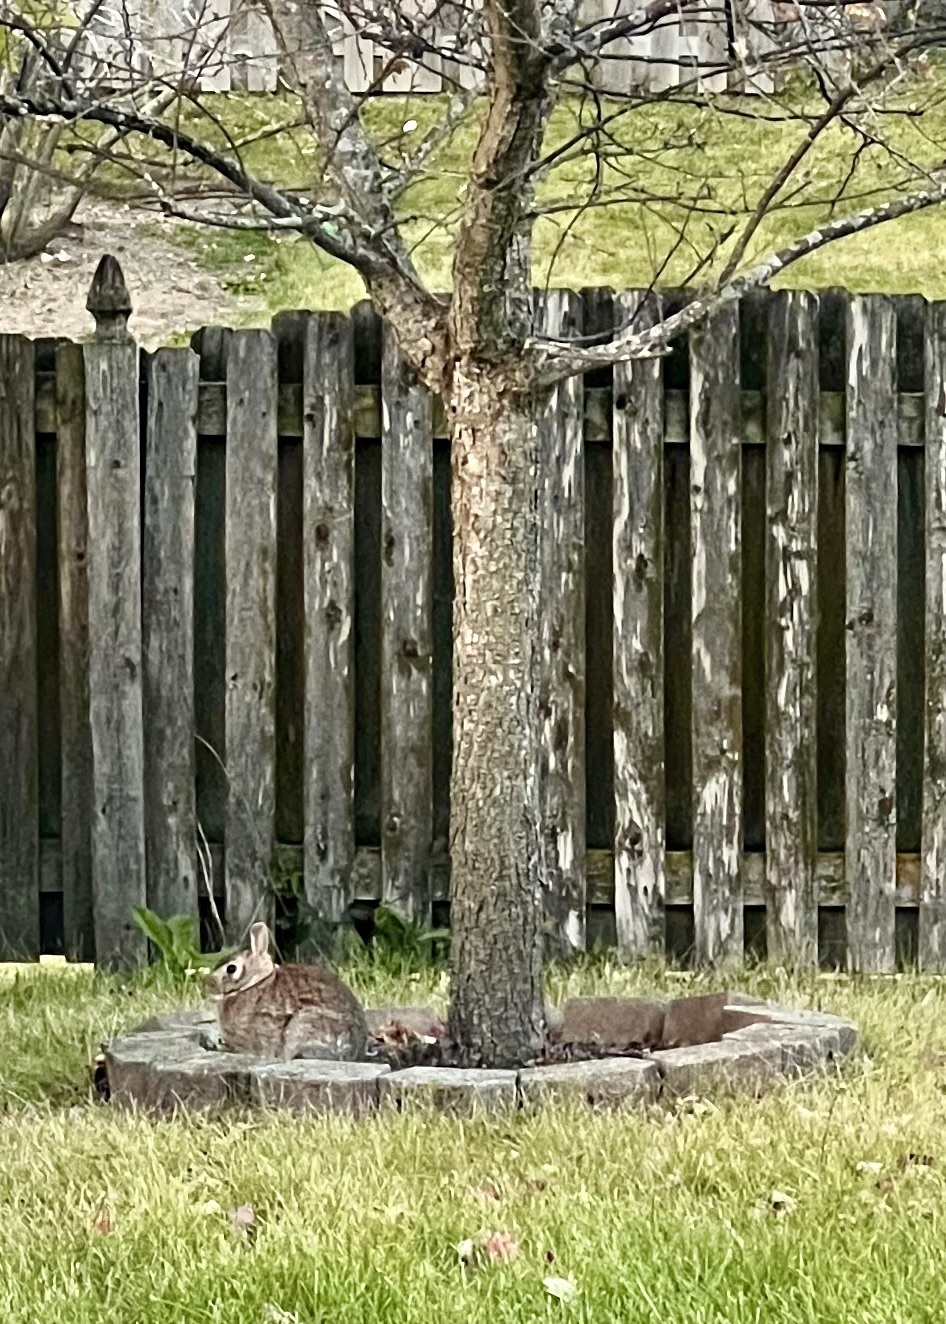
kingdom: Animalia
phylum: Chordata
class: Mammalia
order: Lagomorpha
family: Leporidae
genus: Sylvilagus
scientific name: Sylvilagus floridanus
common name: Eastern cottontail
